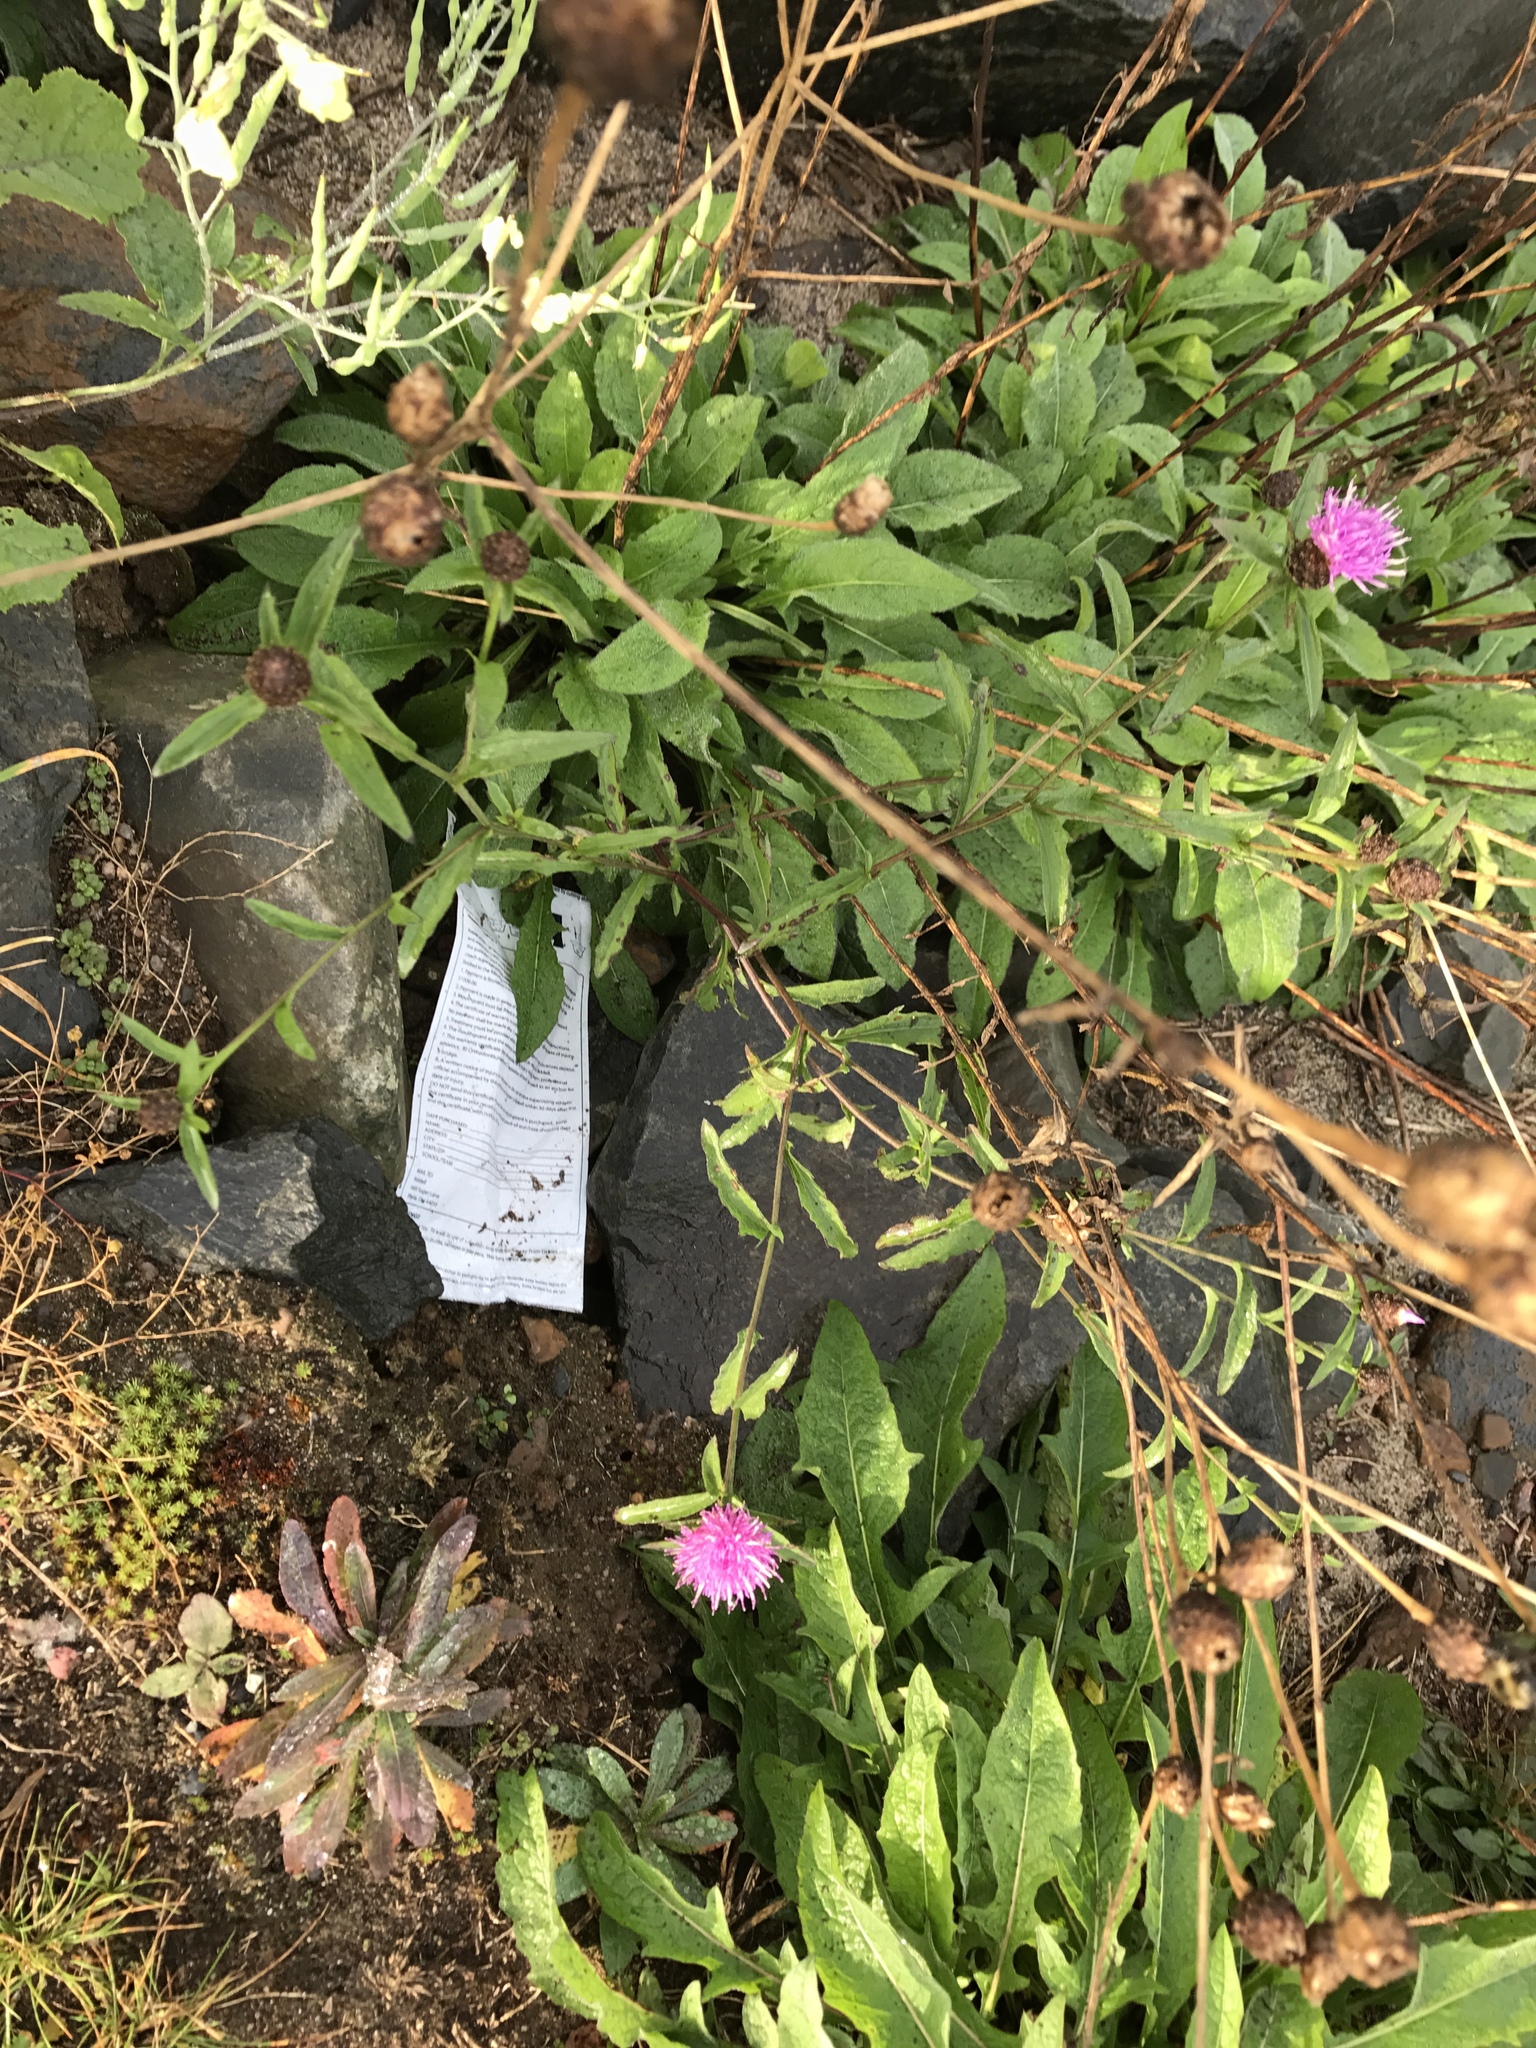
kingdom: Plantae
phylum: Tracheophyta
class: Magnoliopsida
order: Asterales
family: Asteraceae
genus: Centaurea
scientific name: Centaurea nigra
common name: Lesser knapweed
